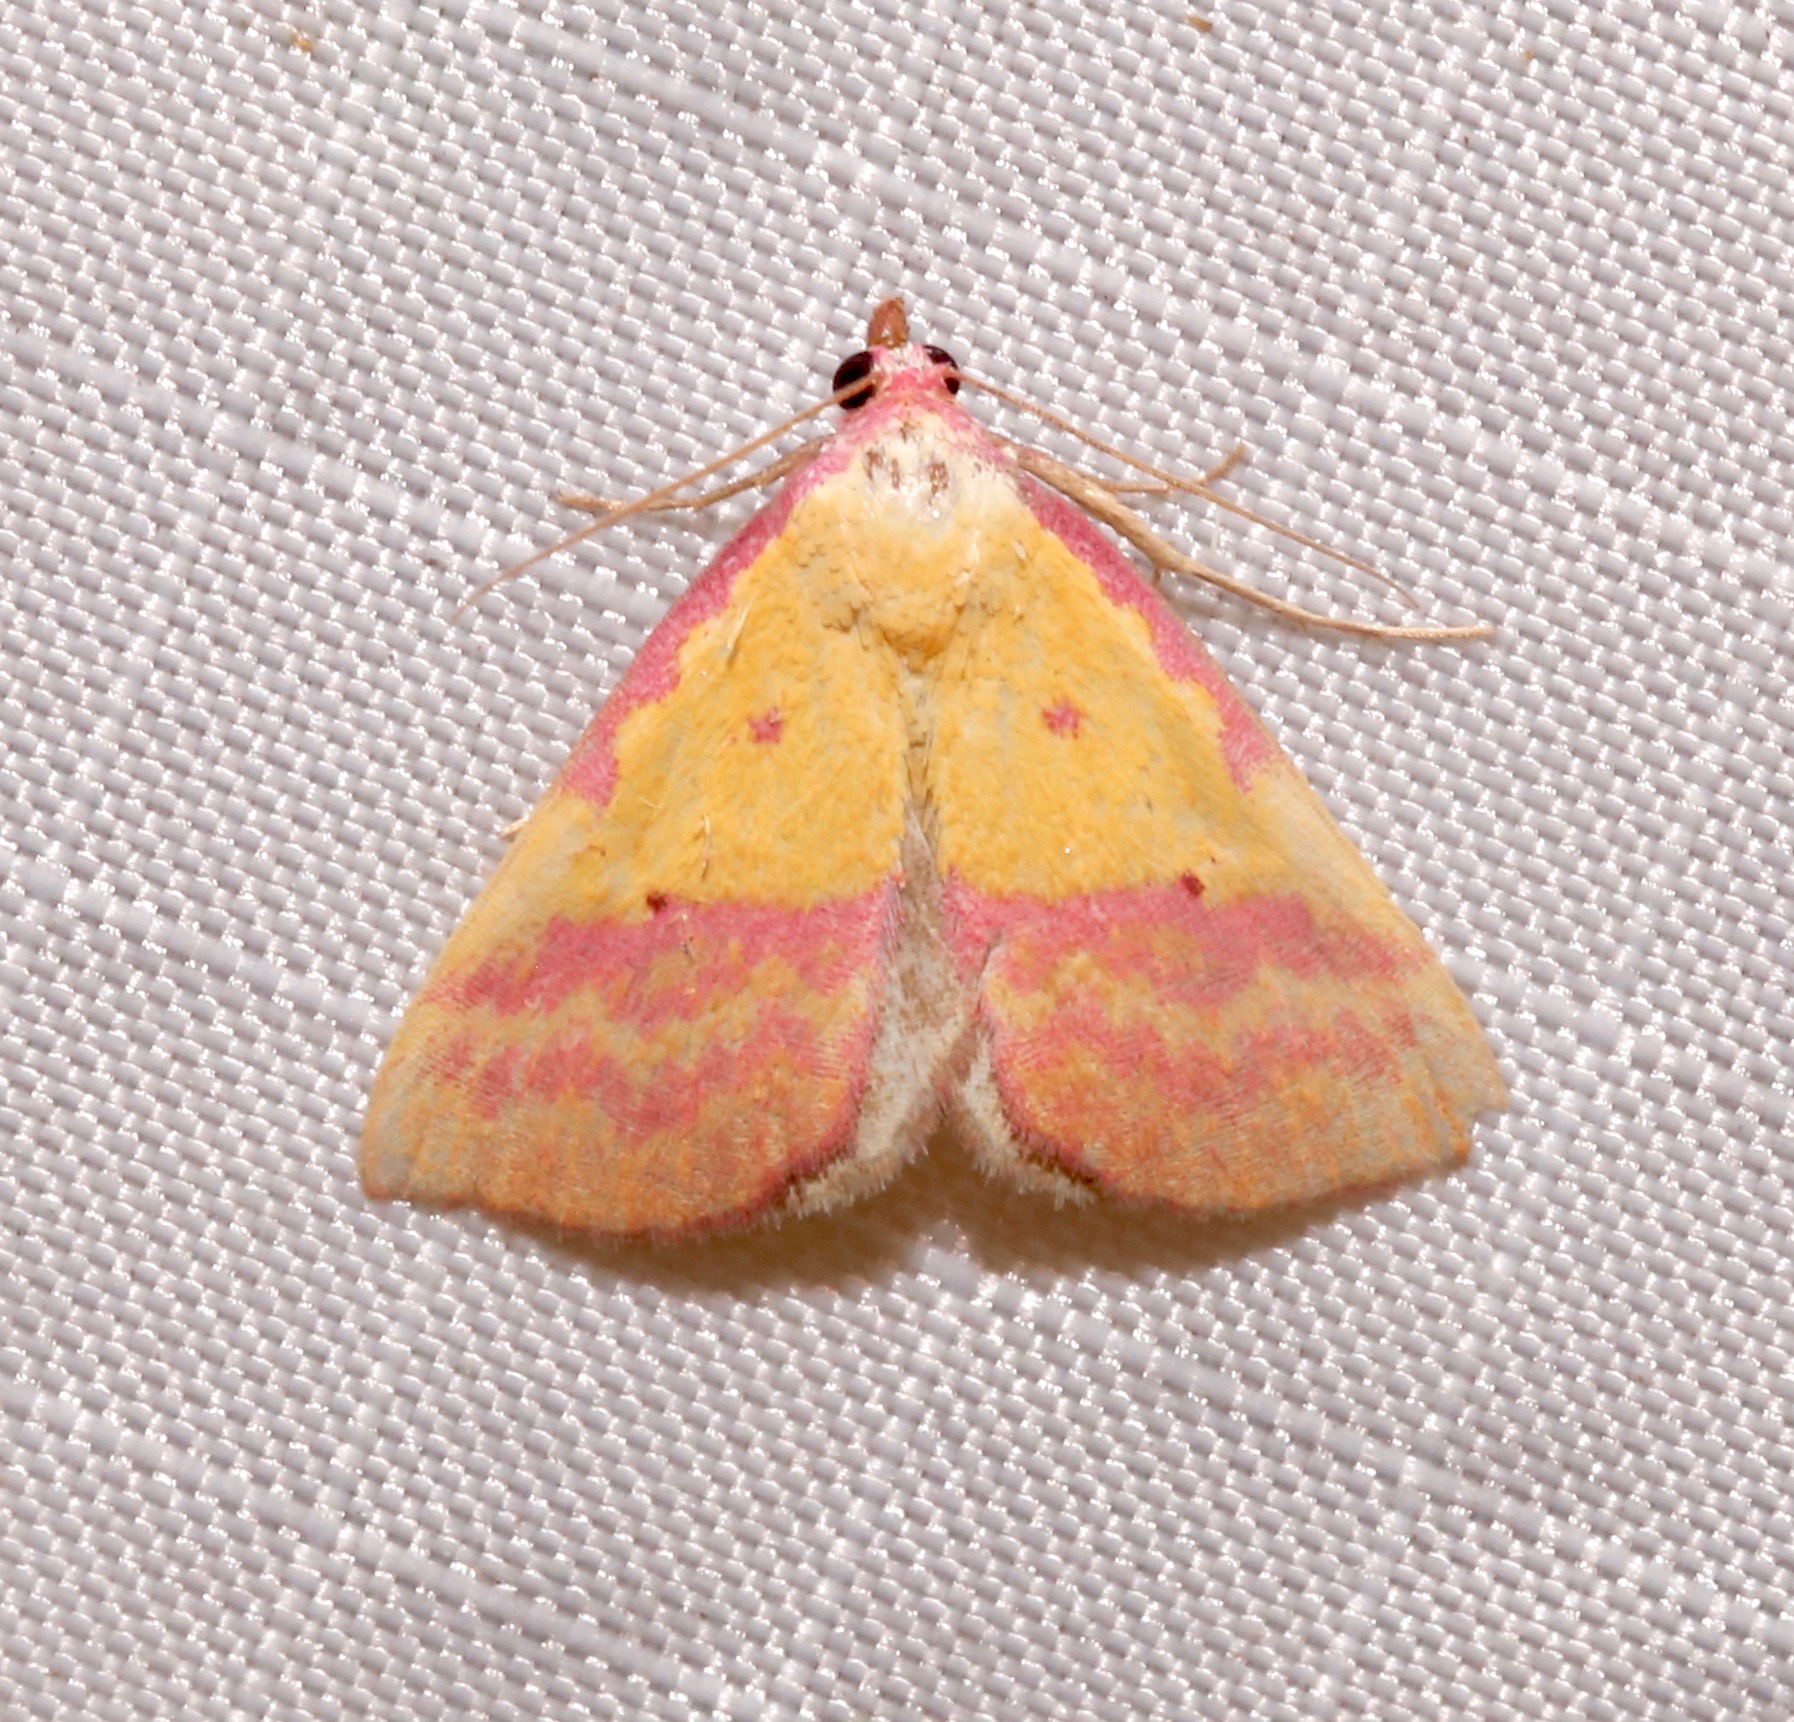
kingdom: Animalia
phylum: Arthropoda
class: Insecta
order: Lepidoptera
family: Erebidae
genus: Phytometra
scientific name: Phytometra rhodarialis
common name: Pink-bordered yellow
